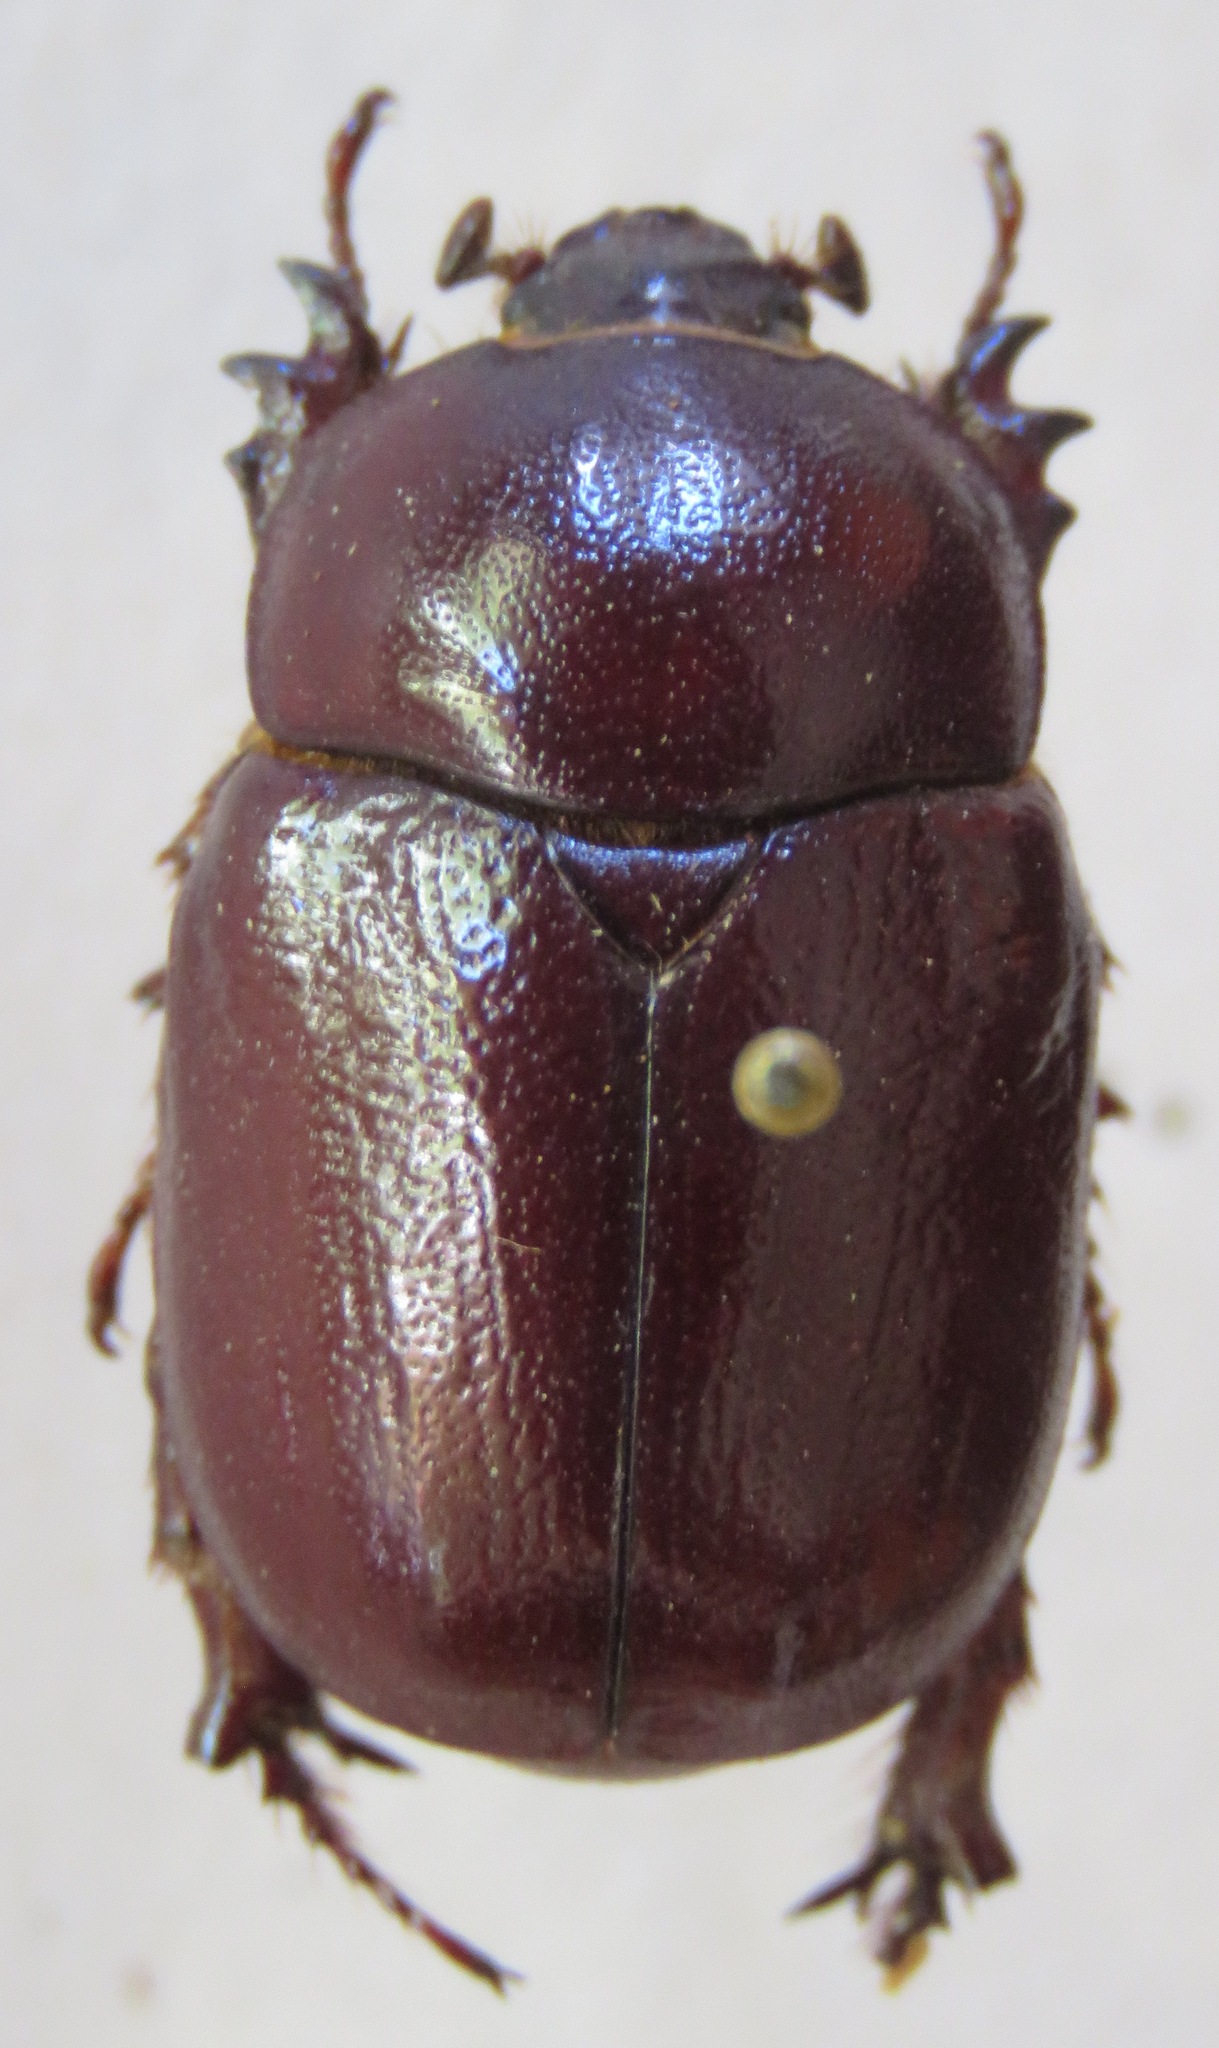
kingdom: Animalia
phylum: Arthropoda
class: Insecta
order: Coleoptera
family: Scarabaeidae
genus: Phyllognathus
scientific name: Phyllognathus excavatus
